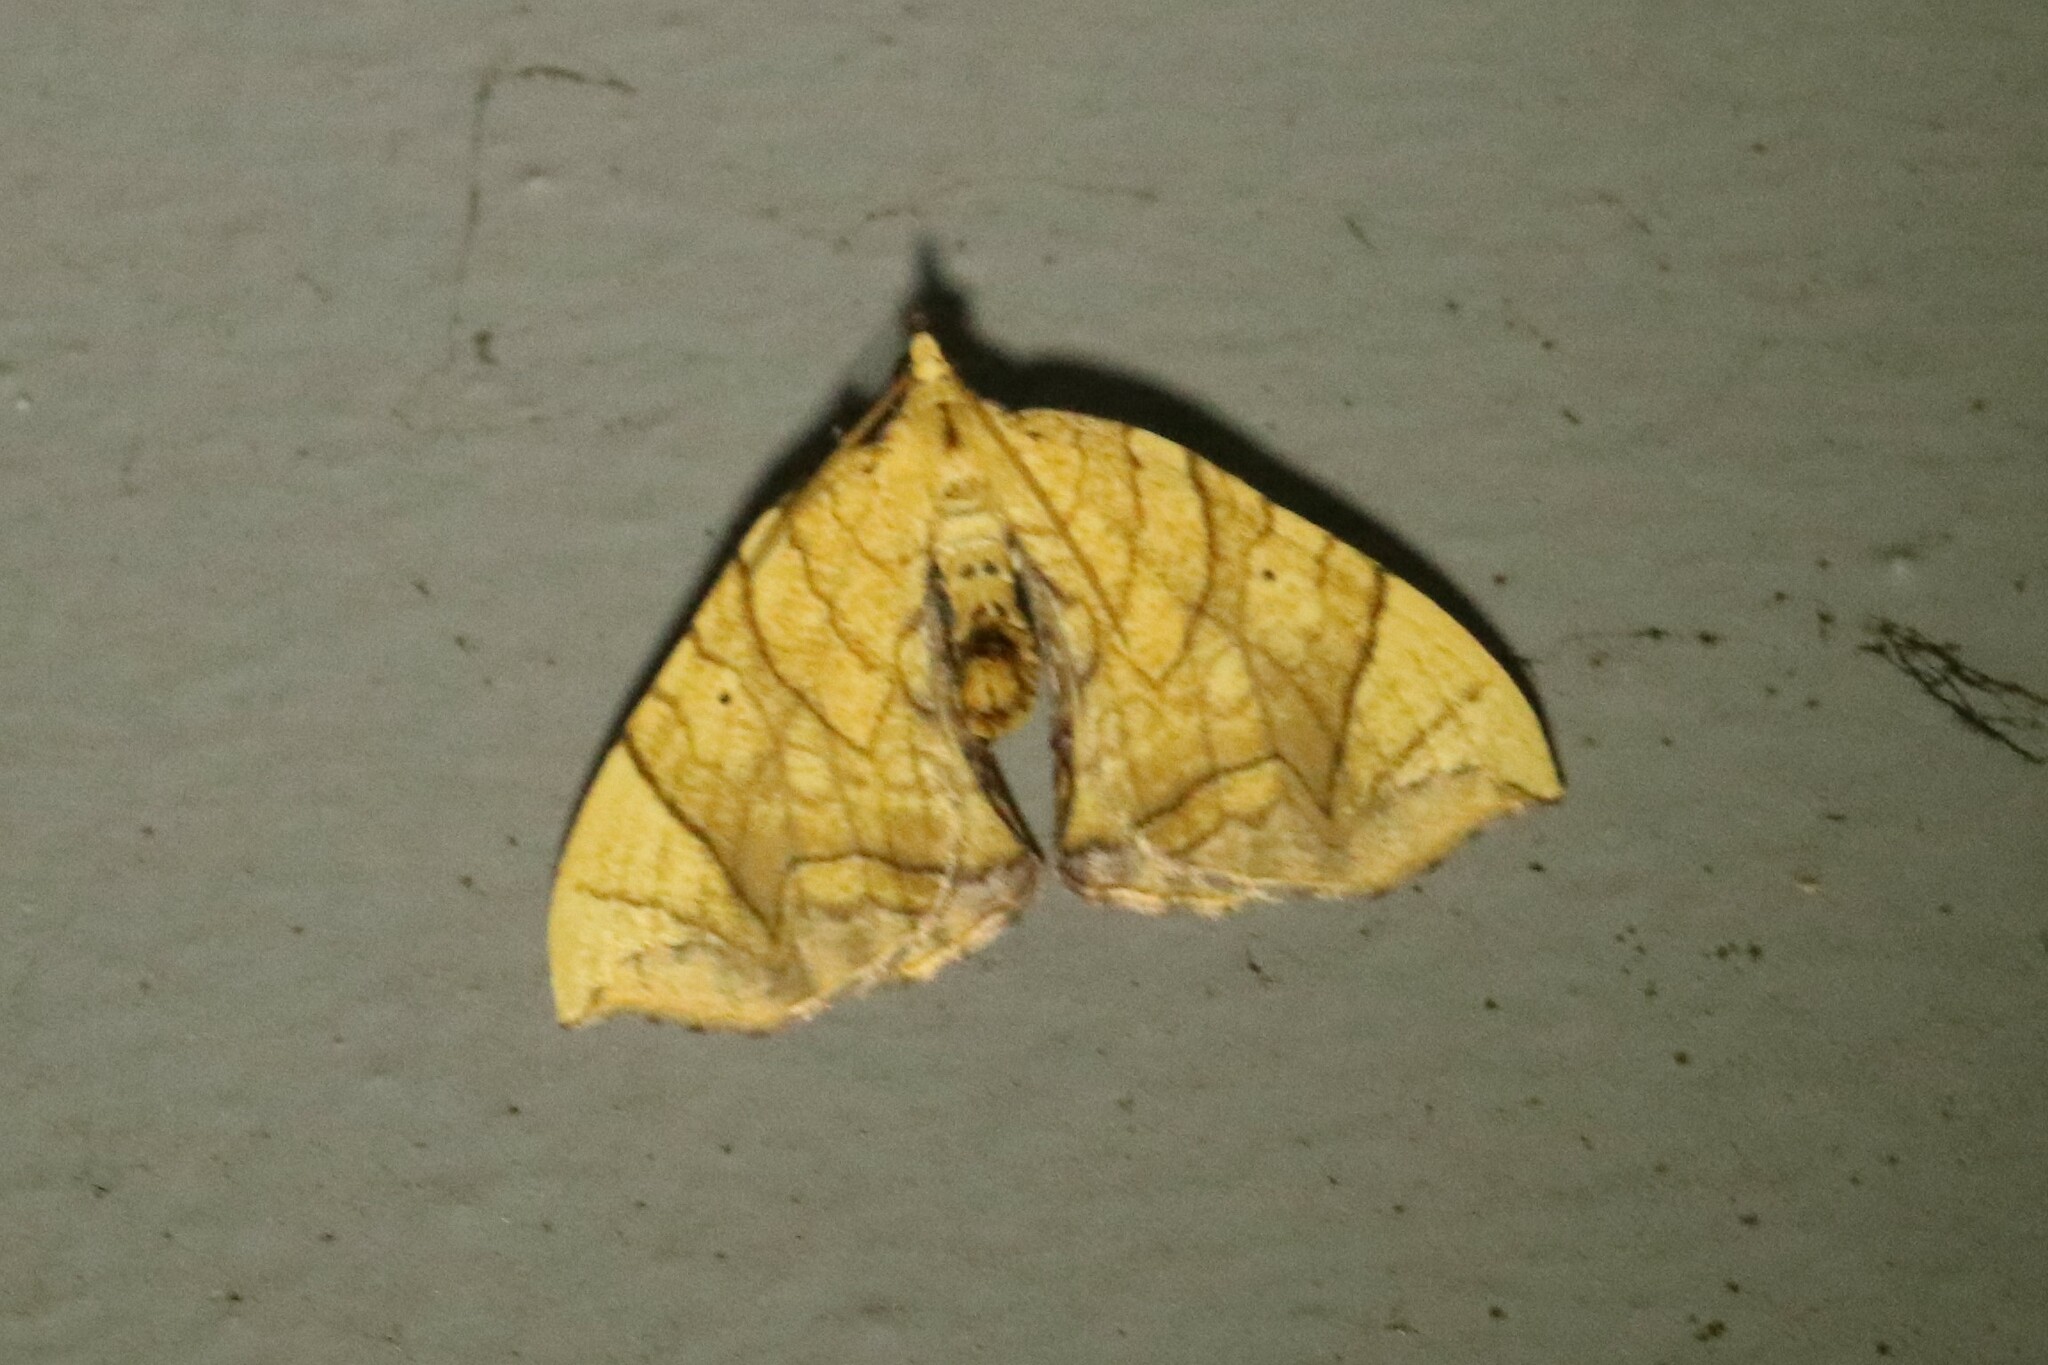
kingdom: Animalia
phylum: Arthropoda
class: Insecta
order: Lepidoptera
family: Geometridae
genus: Eulithis
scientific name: Eulithis
